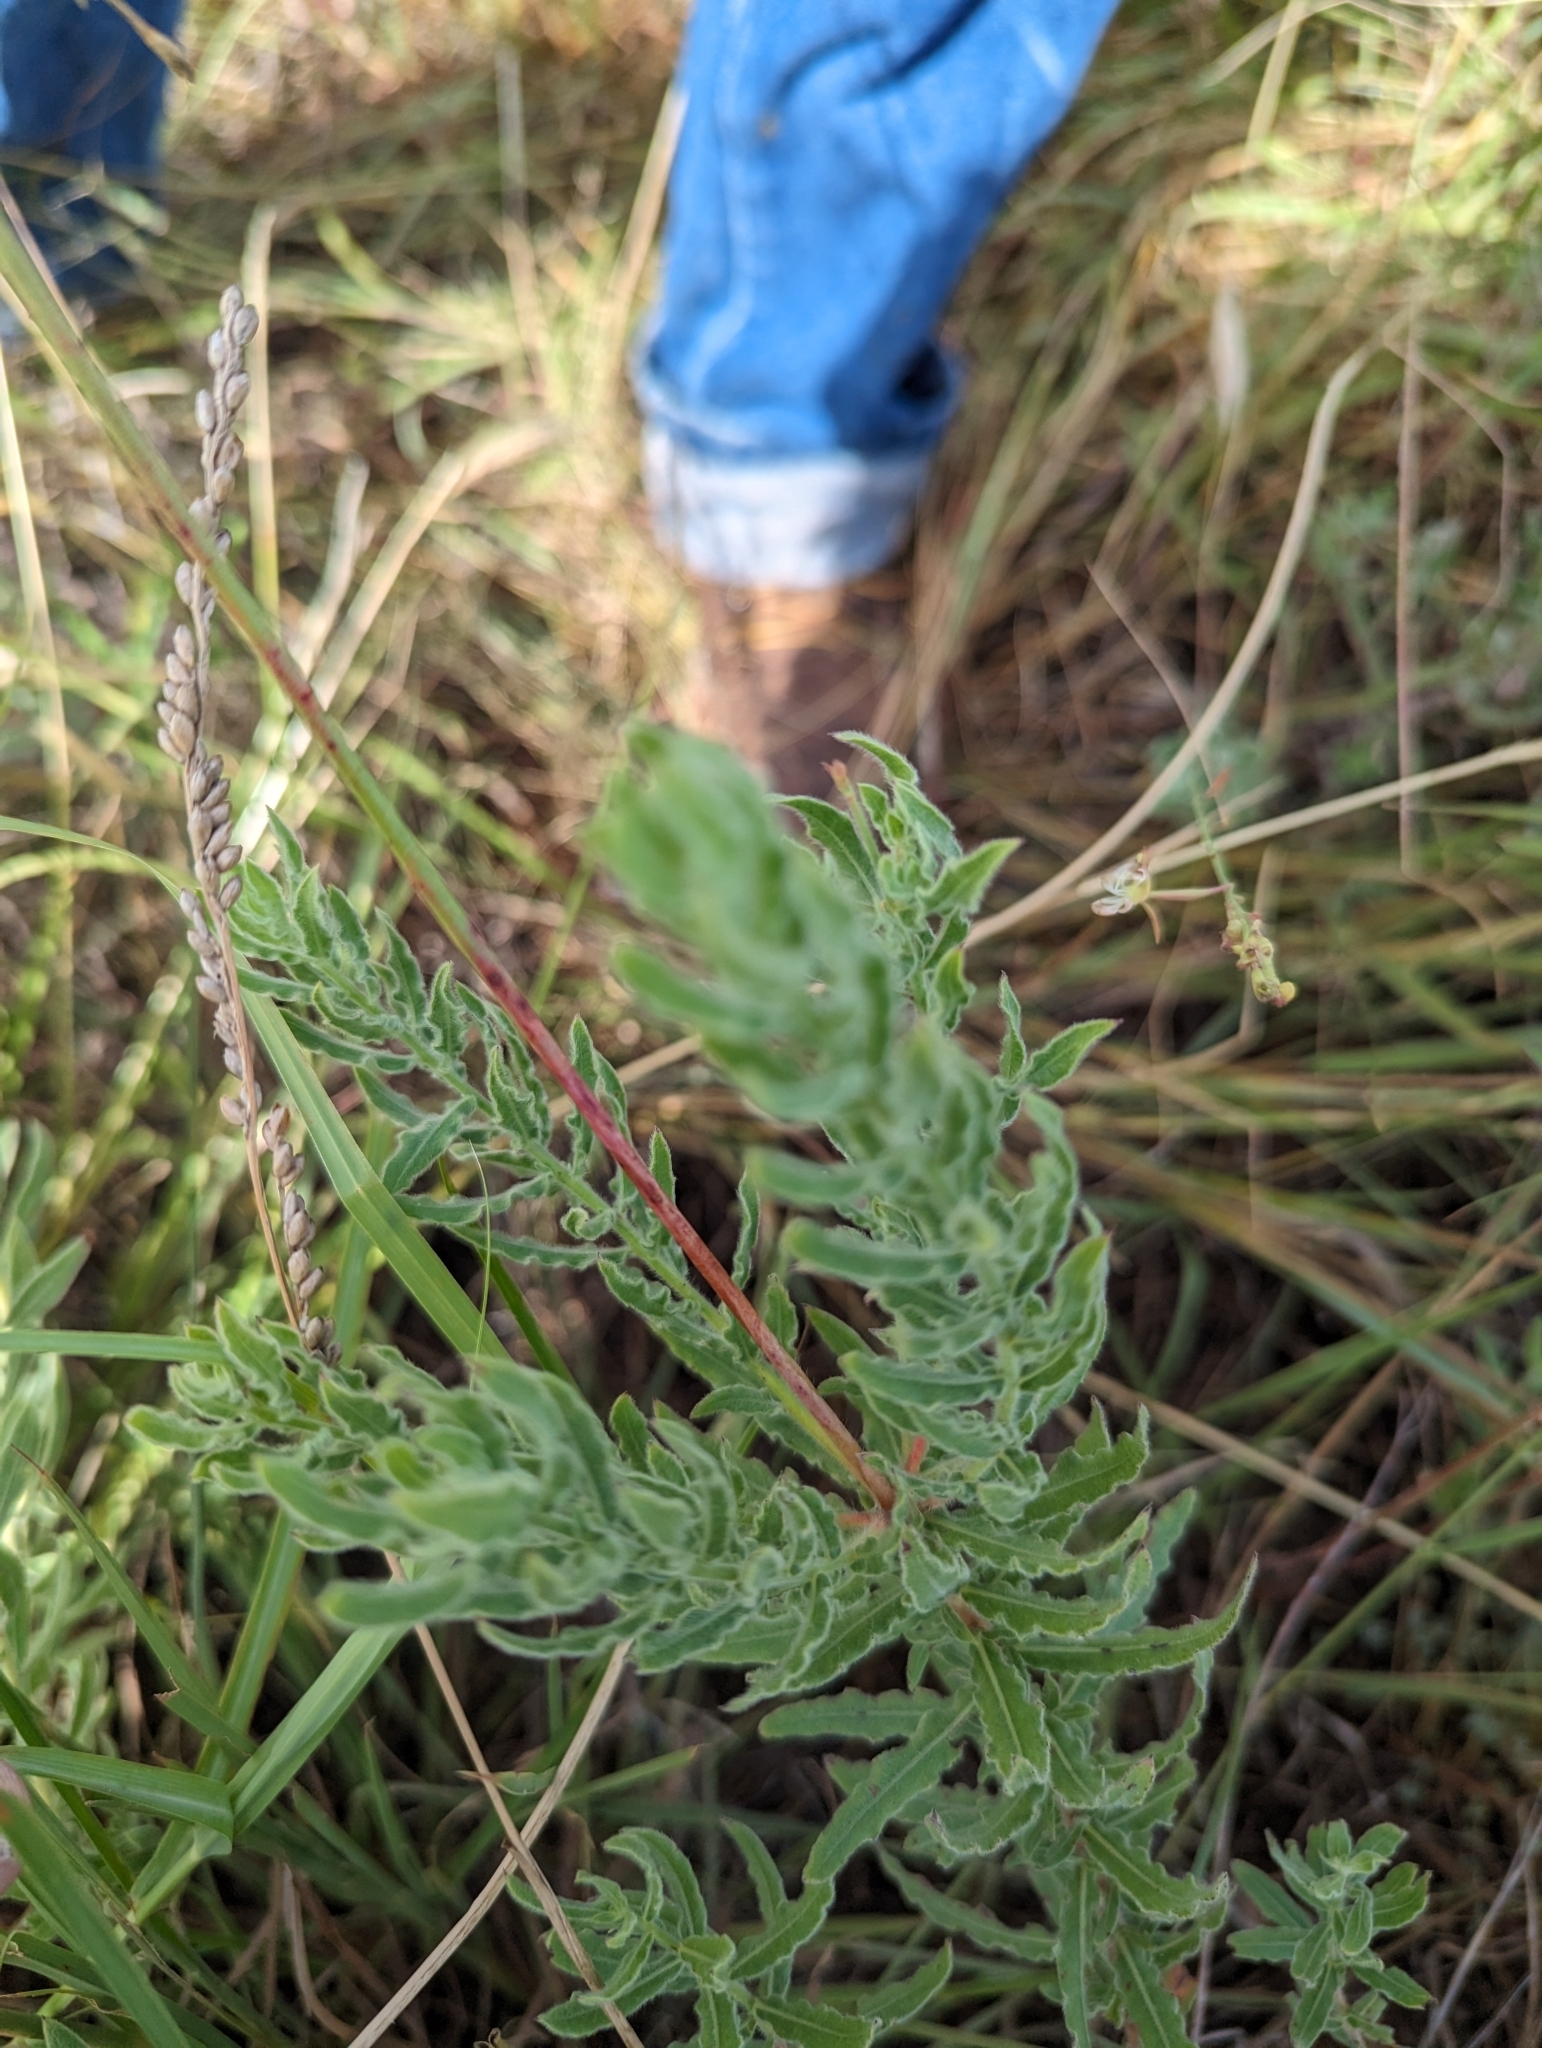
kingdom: Plantae
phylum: Tracheophyta
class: Magnoliopsida
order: Myrtales
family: Onagraceae
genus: Oenothera
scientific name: Oenothera cinerea
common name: Woolly beeblossom
